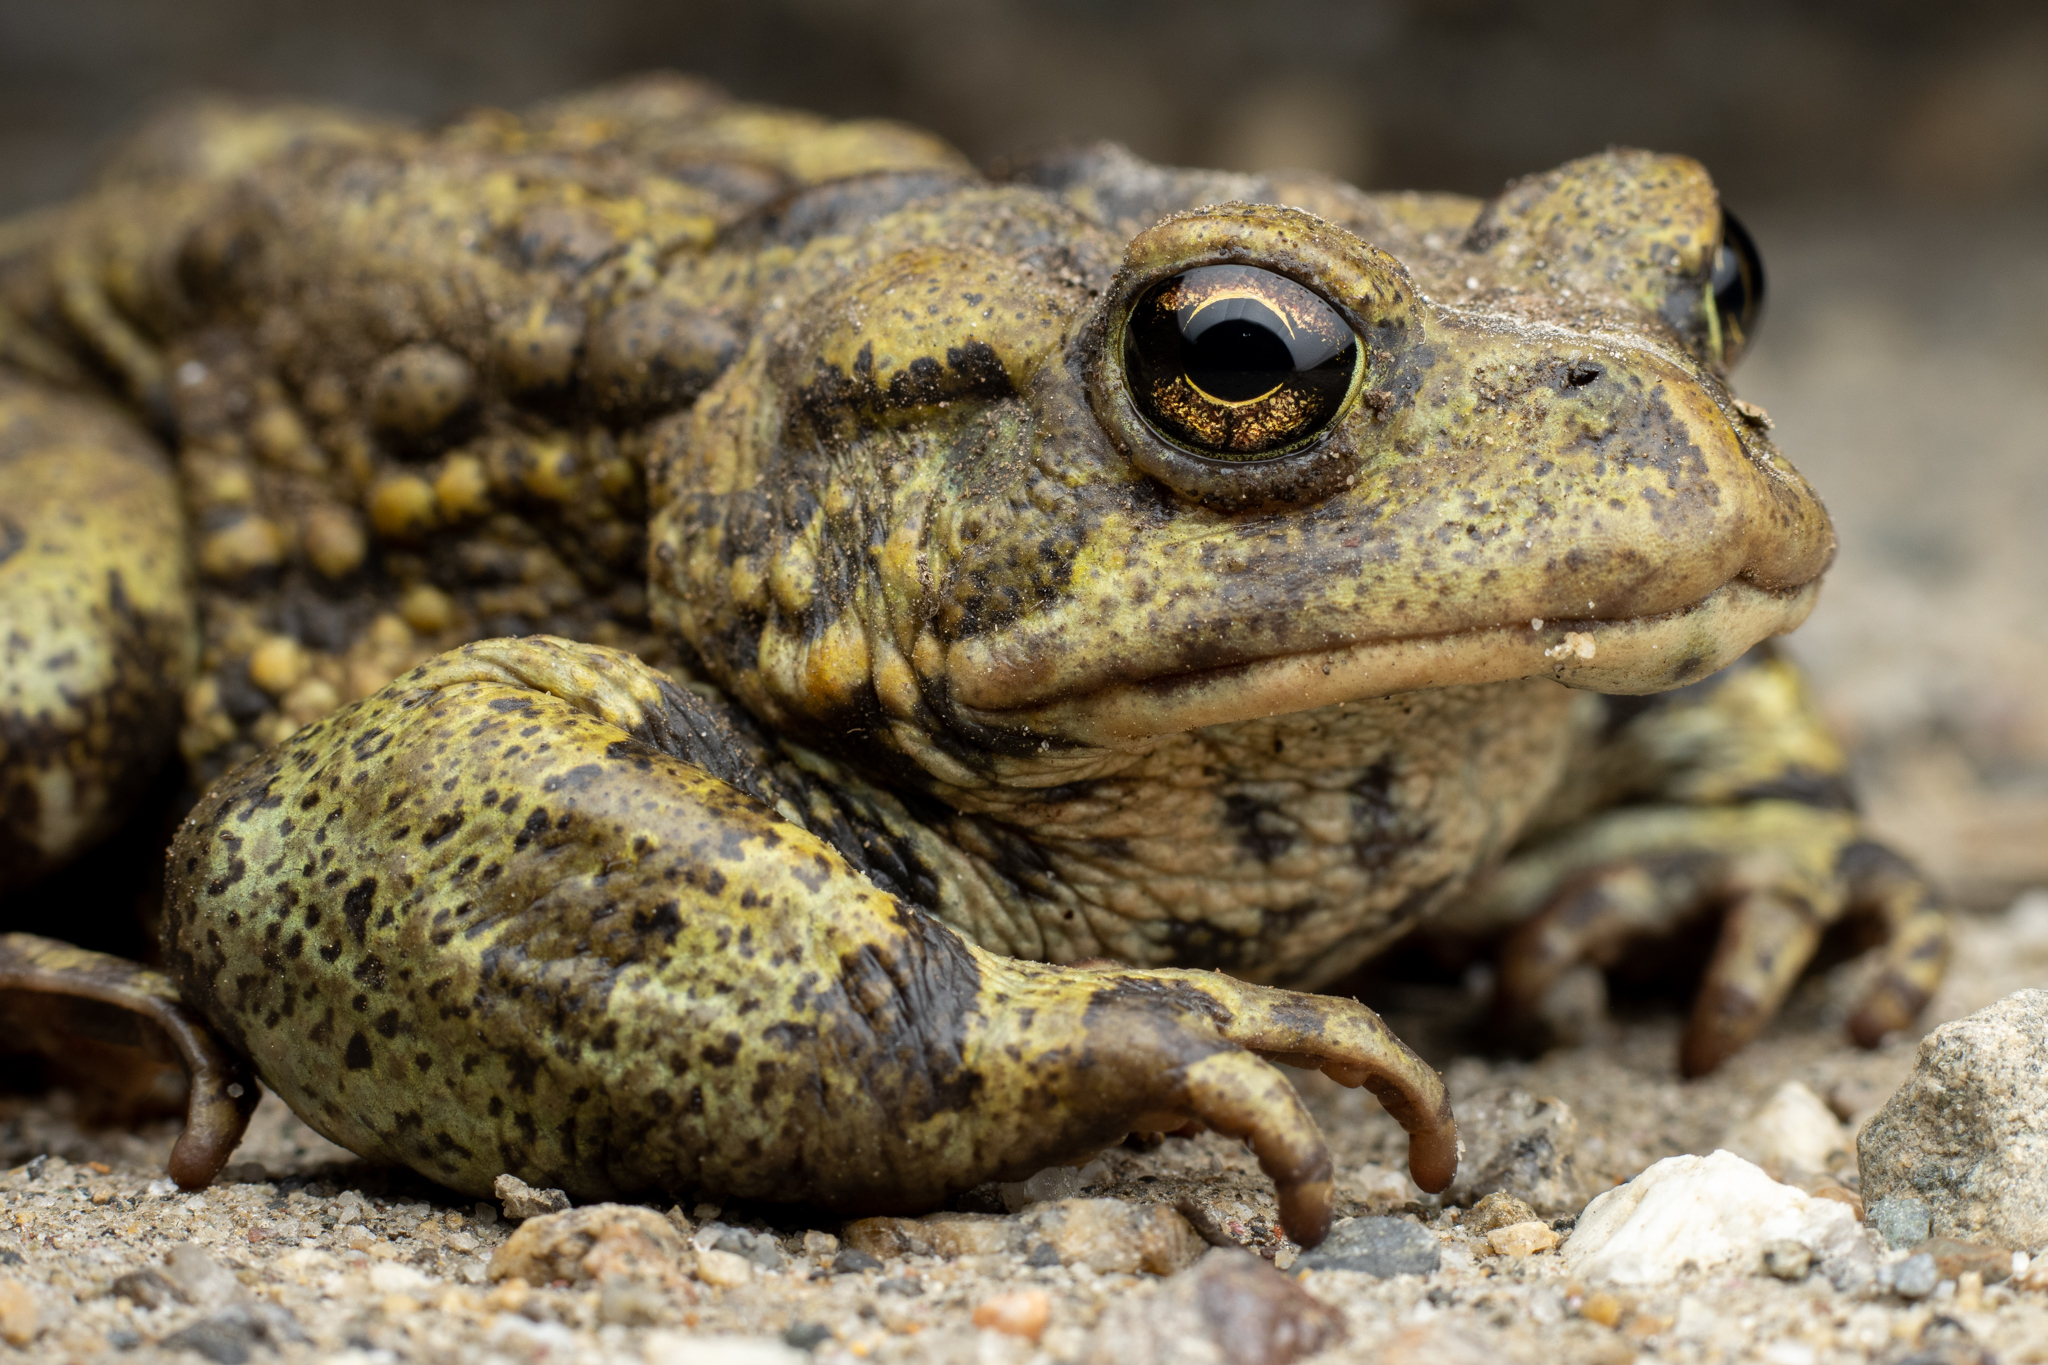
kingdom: Animalia
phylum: Chordata
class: Amphibia
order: Anura
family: Bufonidae
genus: Anaxyrus
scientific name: Anaxyrus boreas
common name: Western toad
